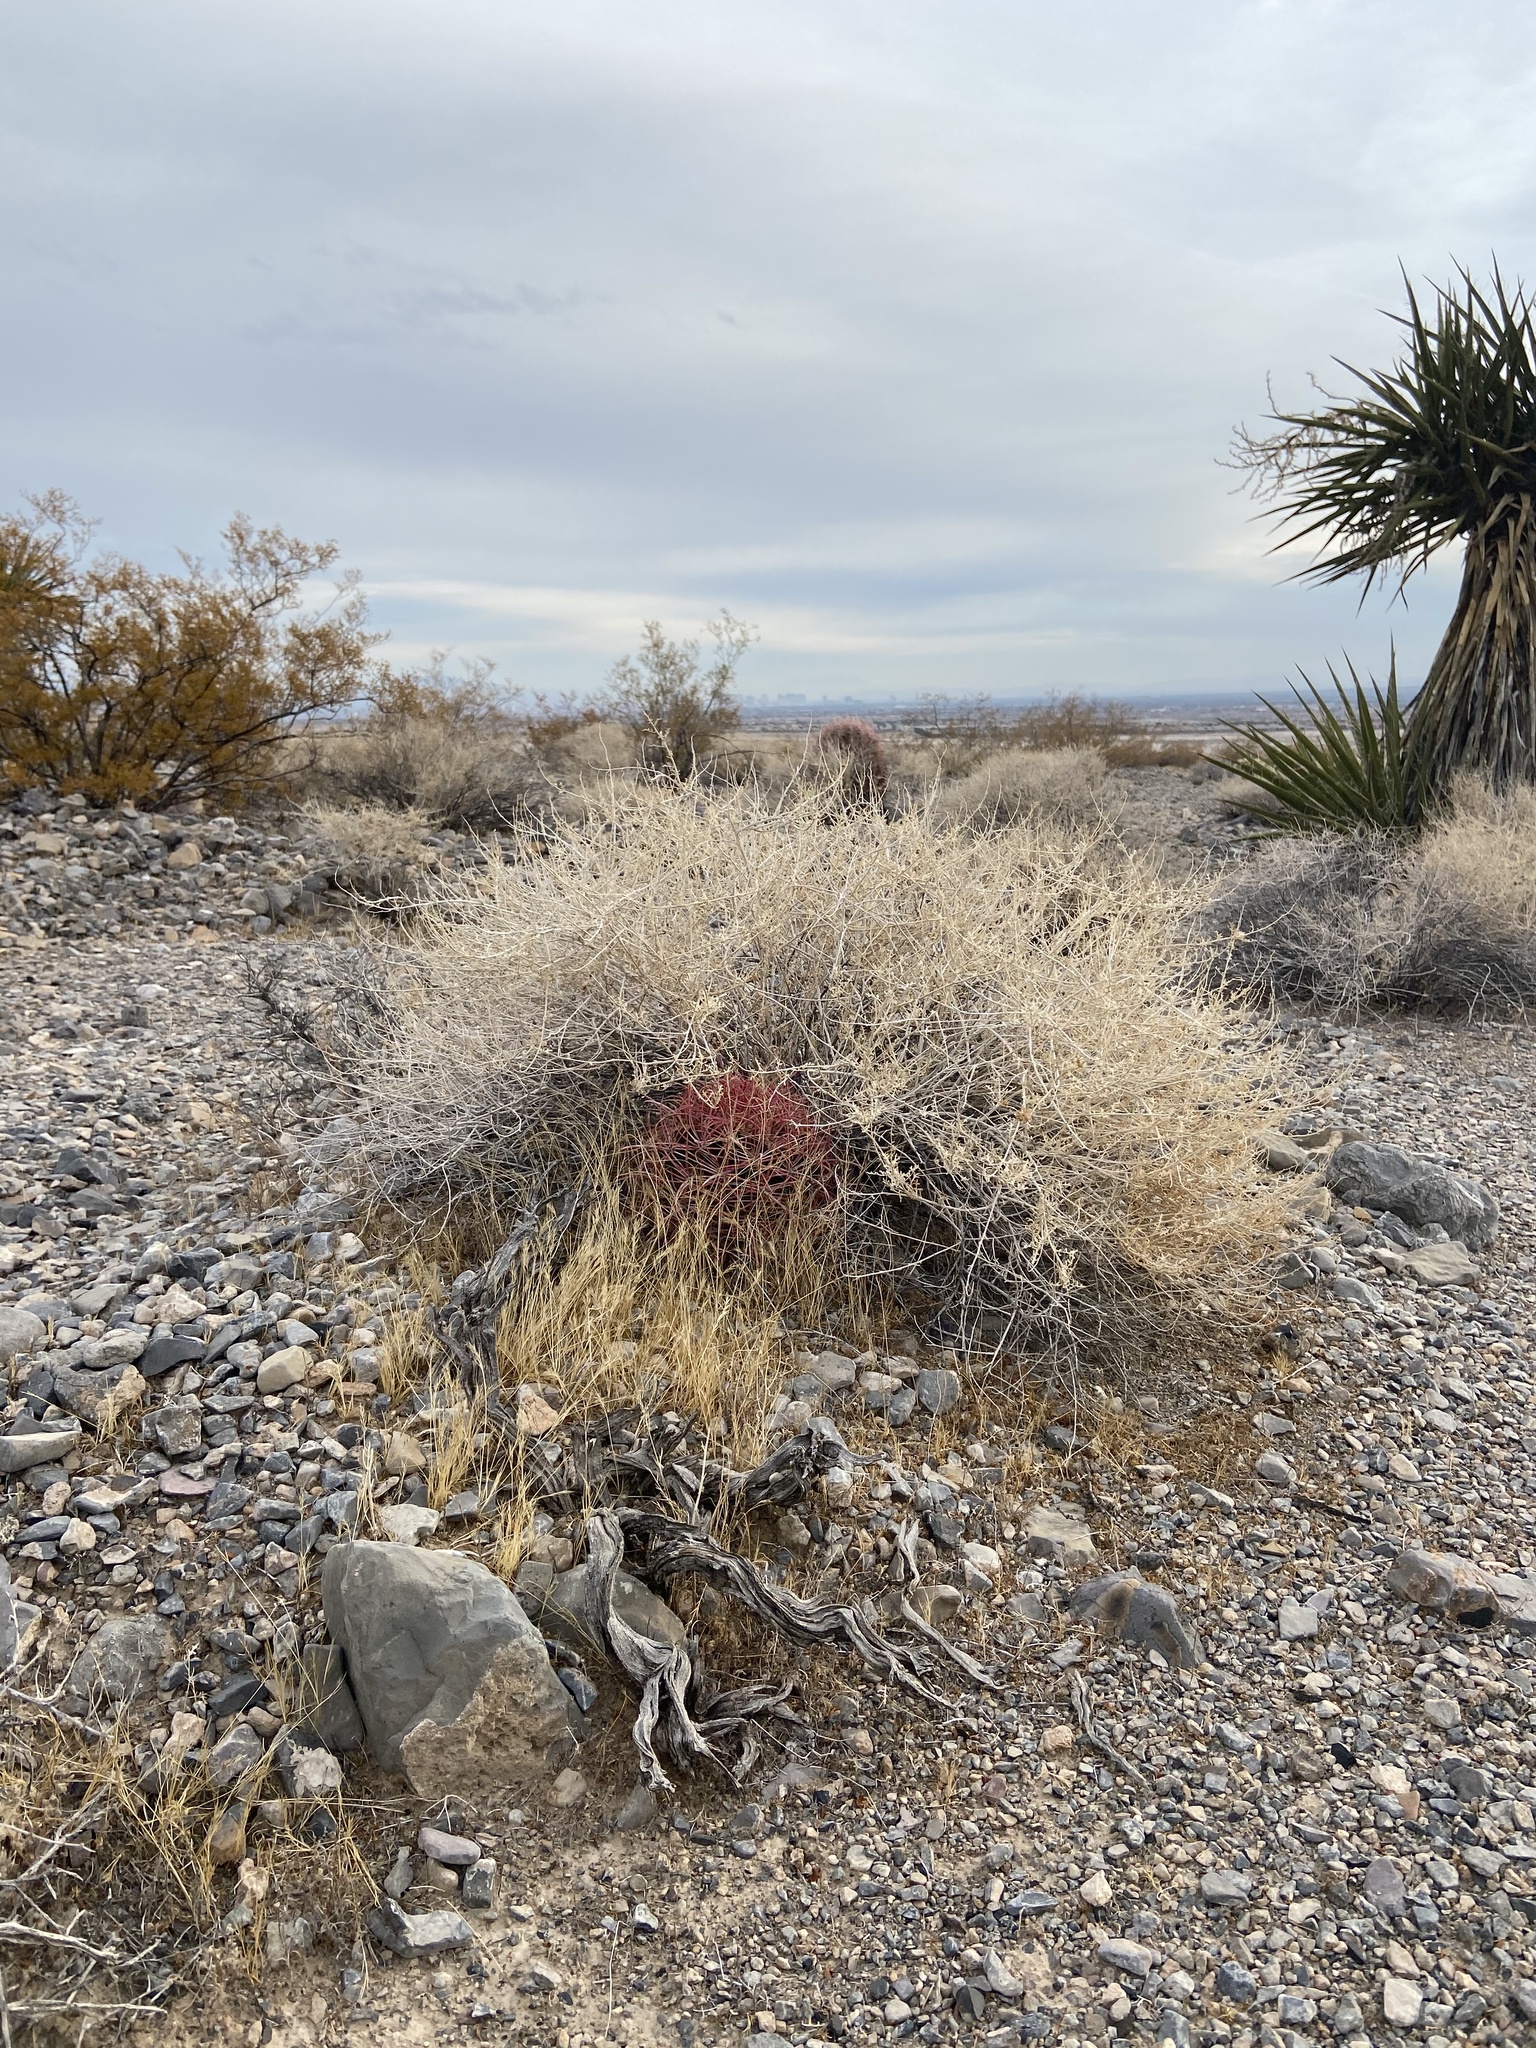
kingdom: Plantae
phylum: Tracheophyta
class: Magnoliopsida
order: Caryophyllales
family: Cactaceae
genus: Ferocactus
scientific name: Ferocactus cylindraceus
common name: California barrel cactus
